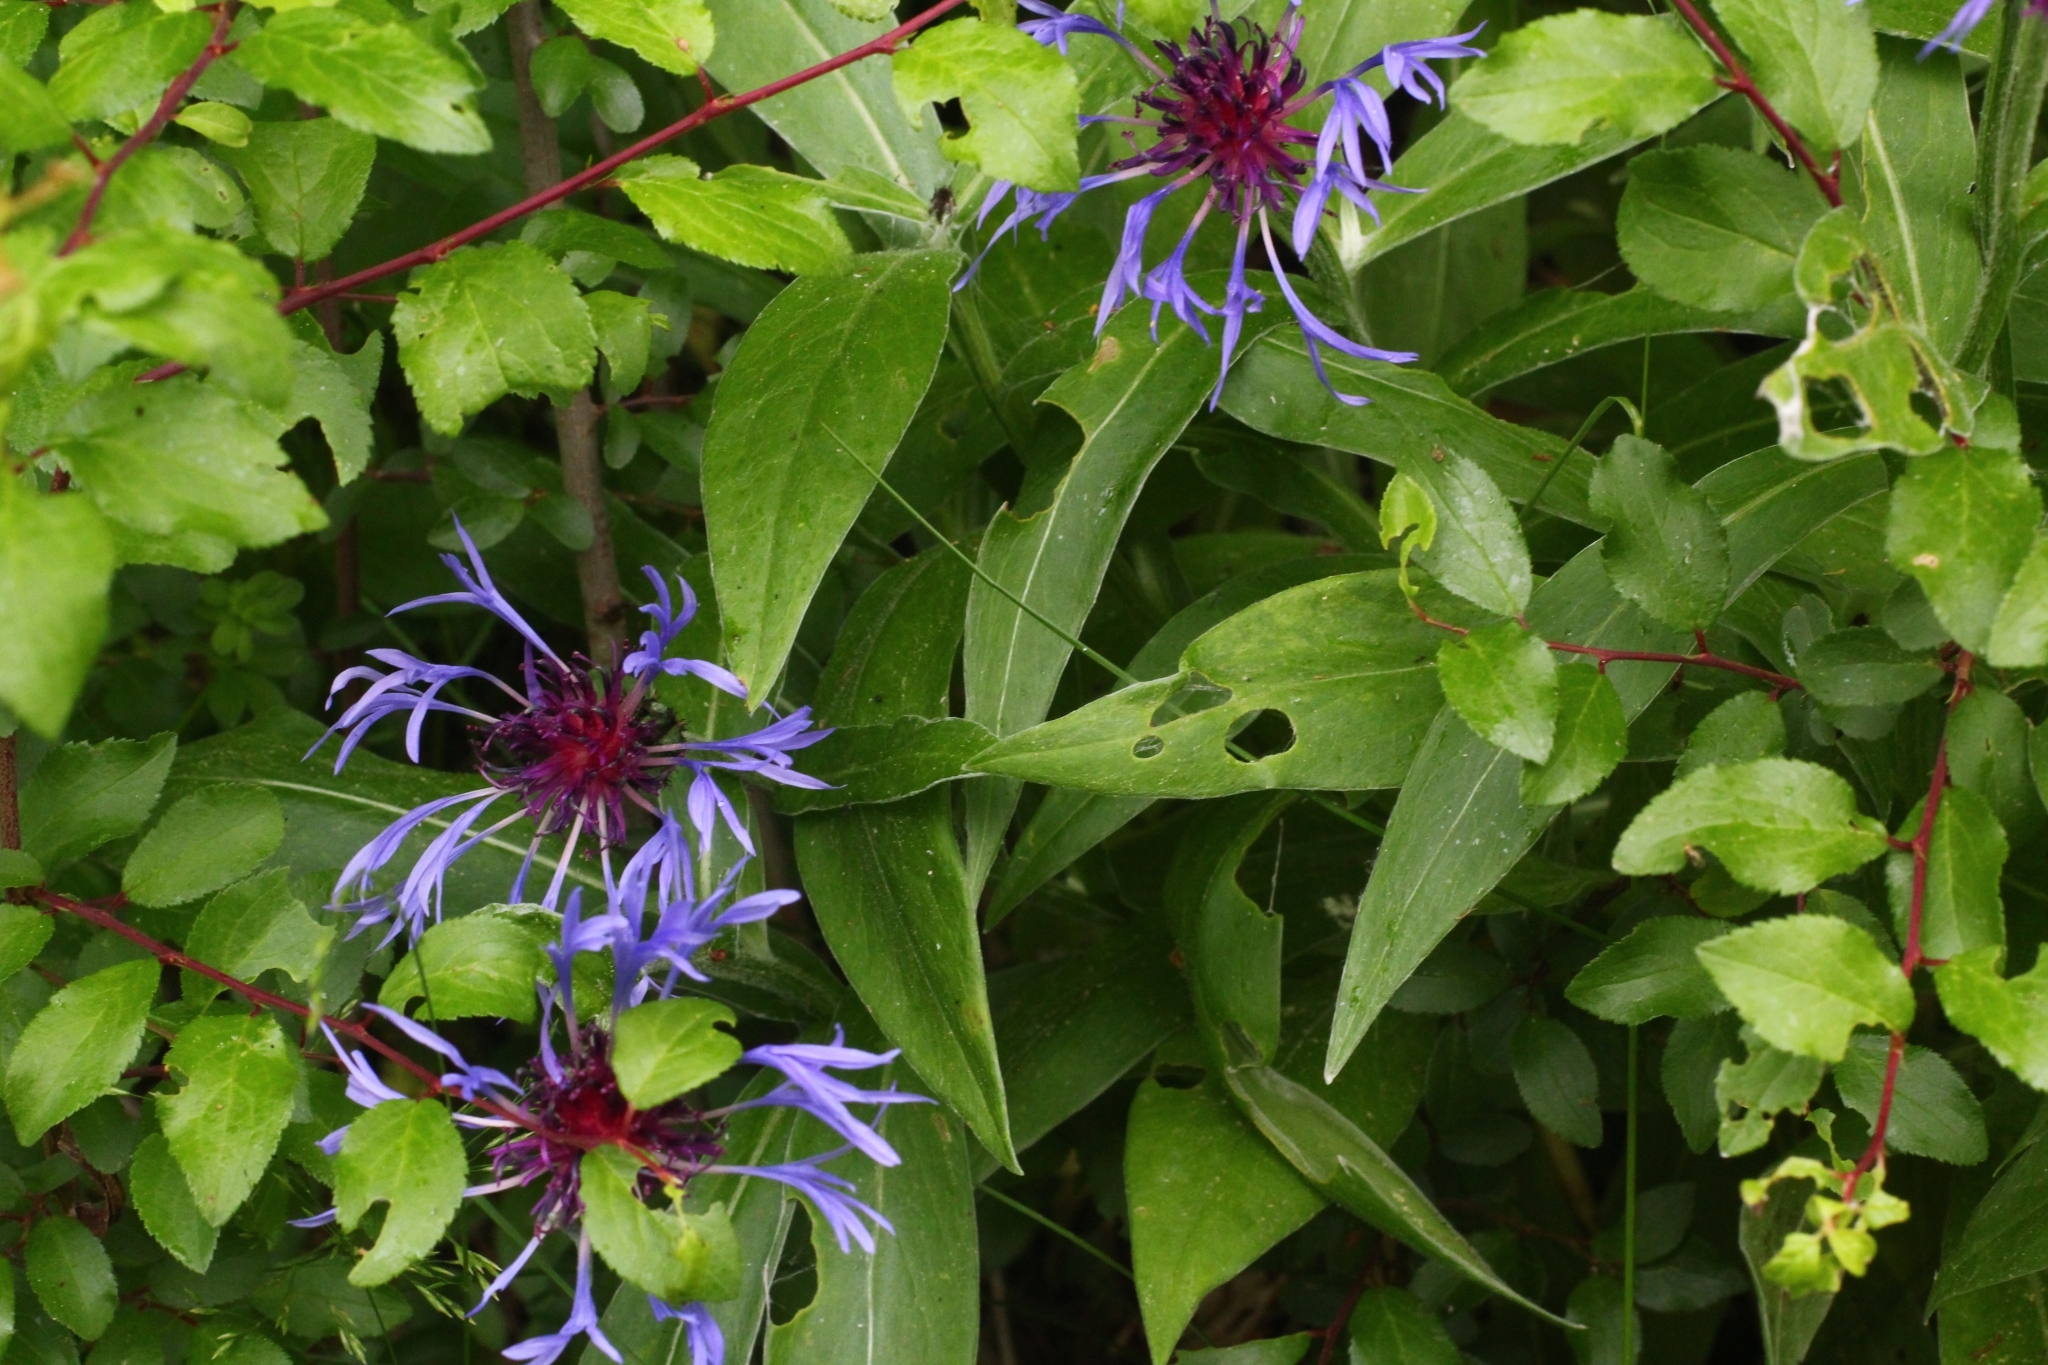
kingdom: Plantae
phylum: Tracheophyta
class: Magnoliopsida
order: Asterales
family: Asteraceae
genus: Centaurea
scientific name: Centaurea montana
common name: Perennial cornflower
